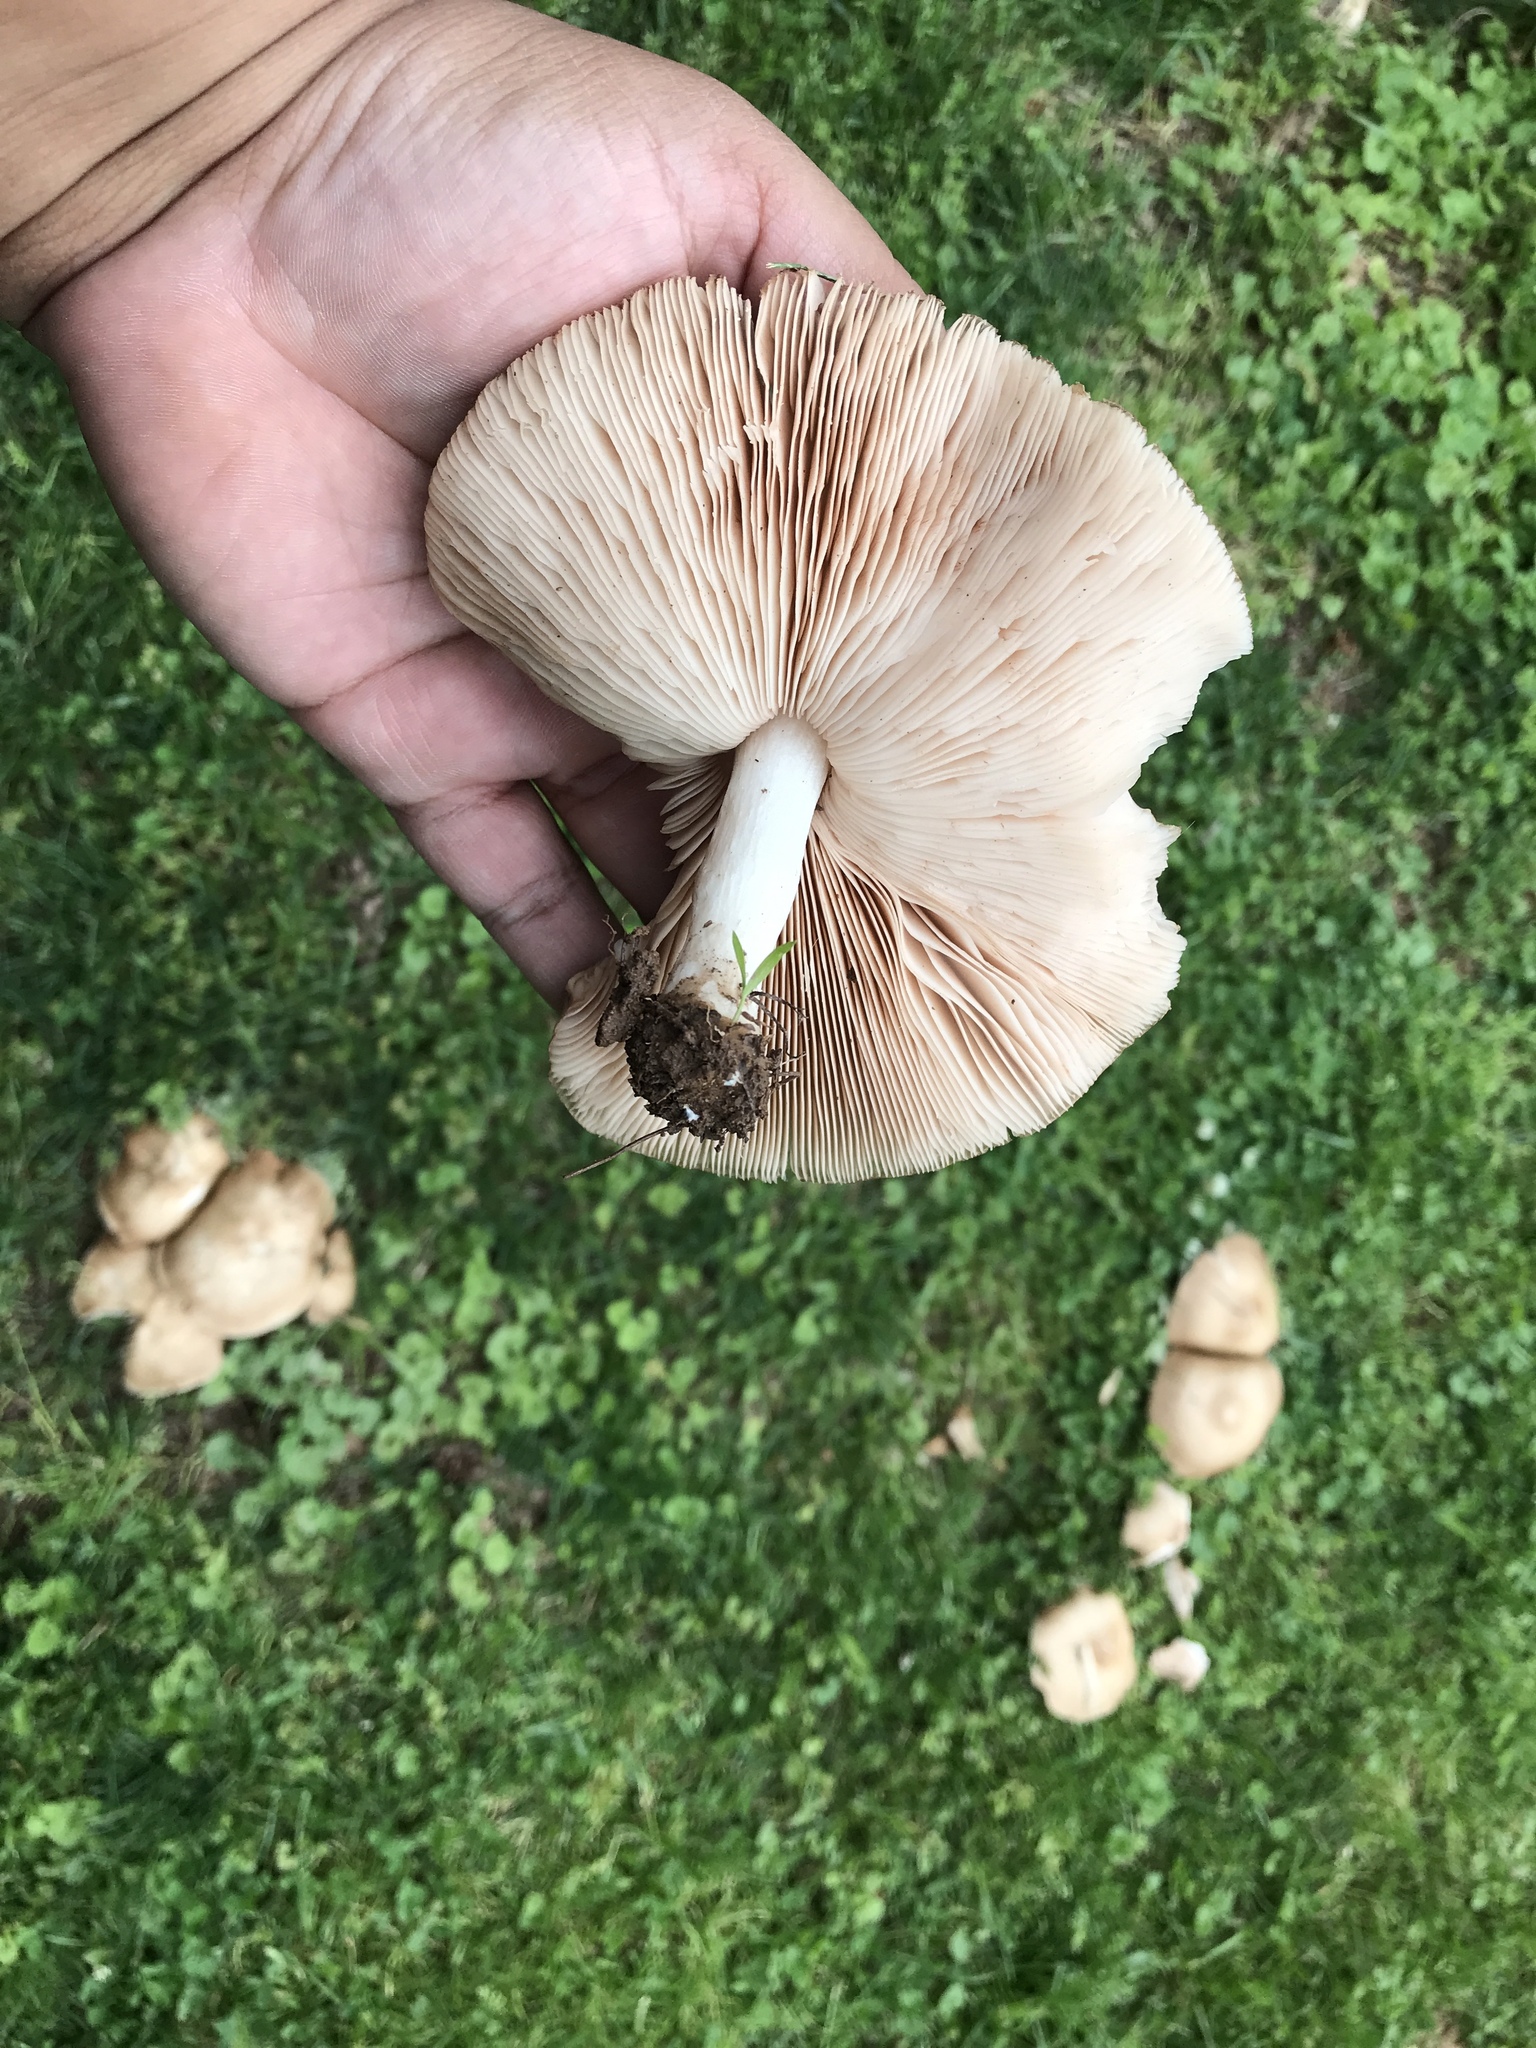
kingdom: Fungi
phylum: Basidiomycota
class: Agaricomycetes
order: Agaricales
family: Pluteaceae
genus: Pluteus
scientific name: Pluteus petasatus
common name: Scaly shield
